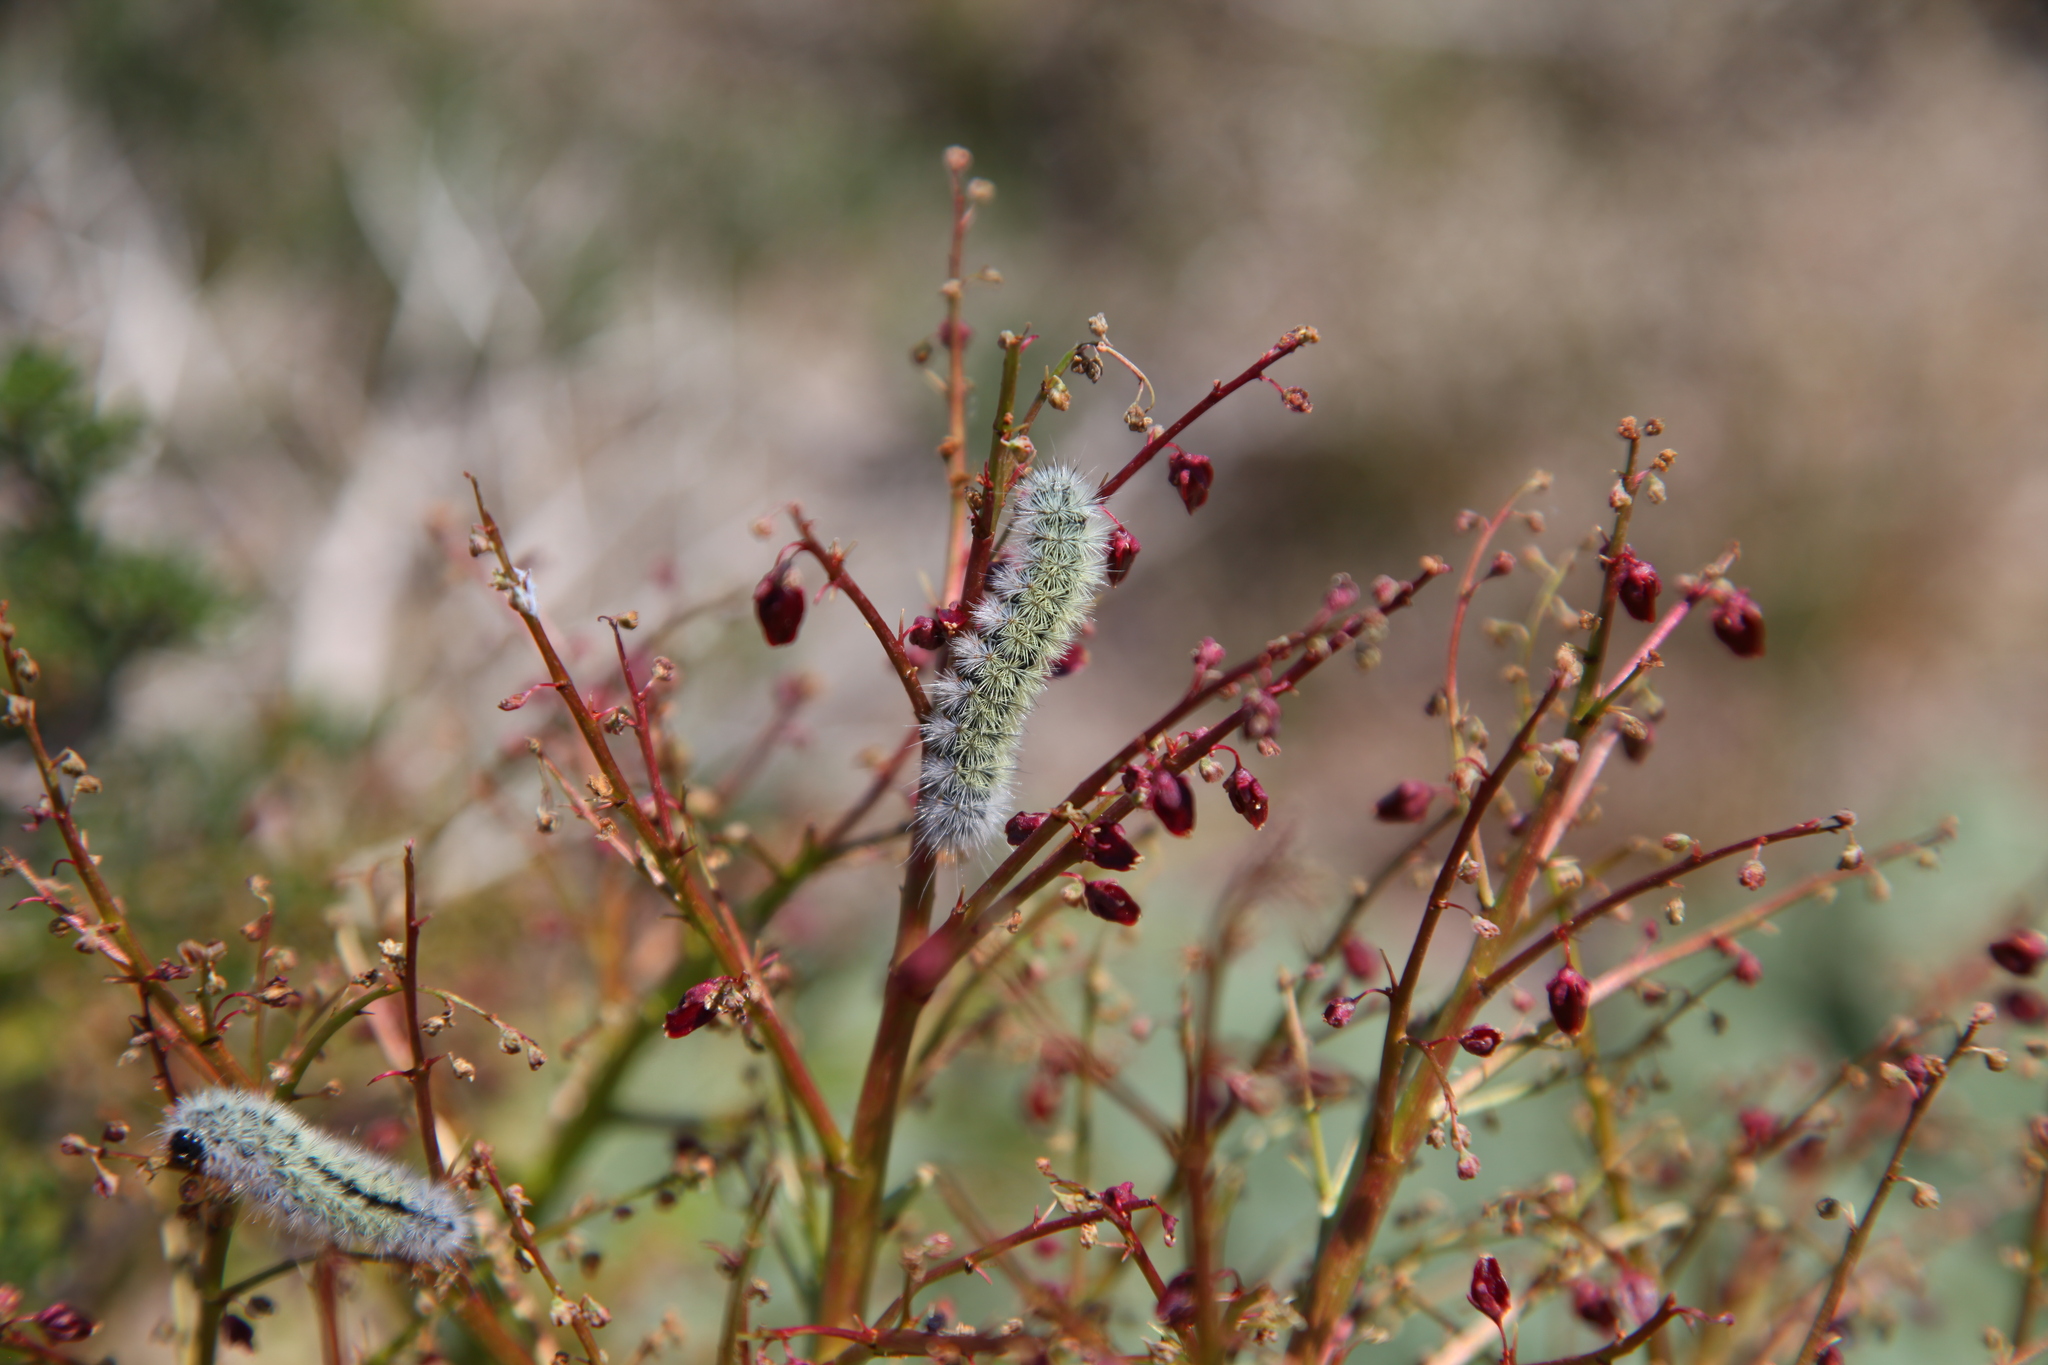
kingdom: Animalia
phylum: Arthropoda
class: Insecta
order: Lepidoptera
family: Erebidae
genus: Lacydes
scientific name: Lacydes spectabilis
